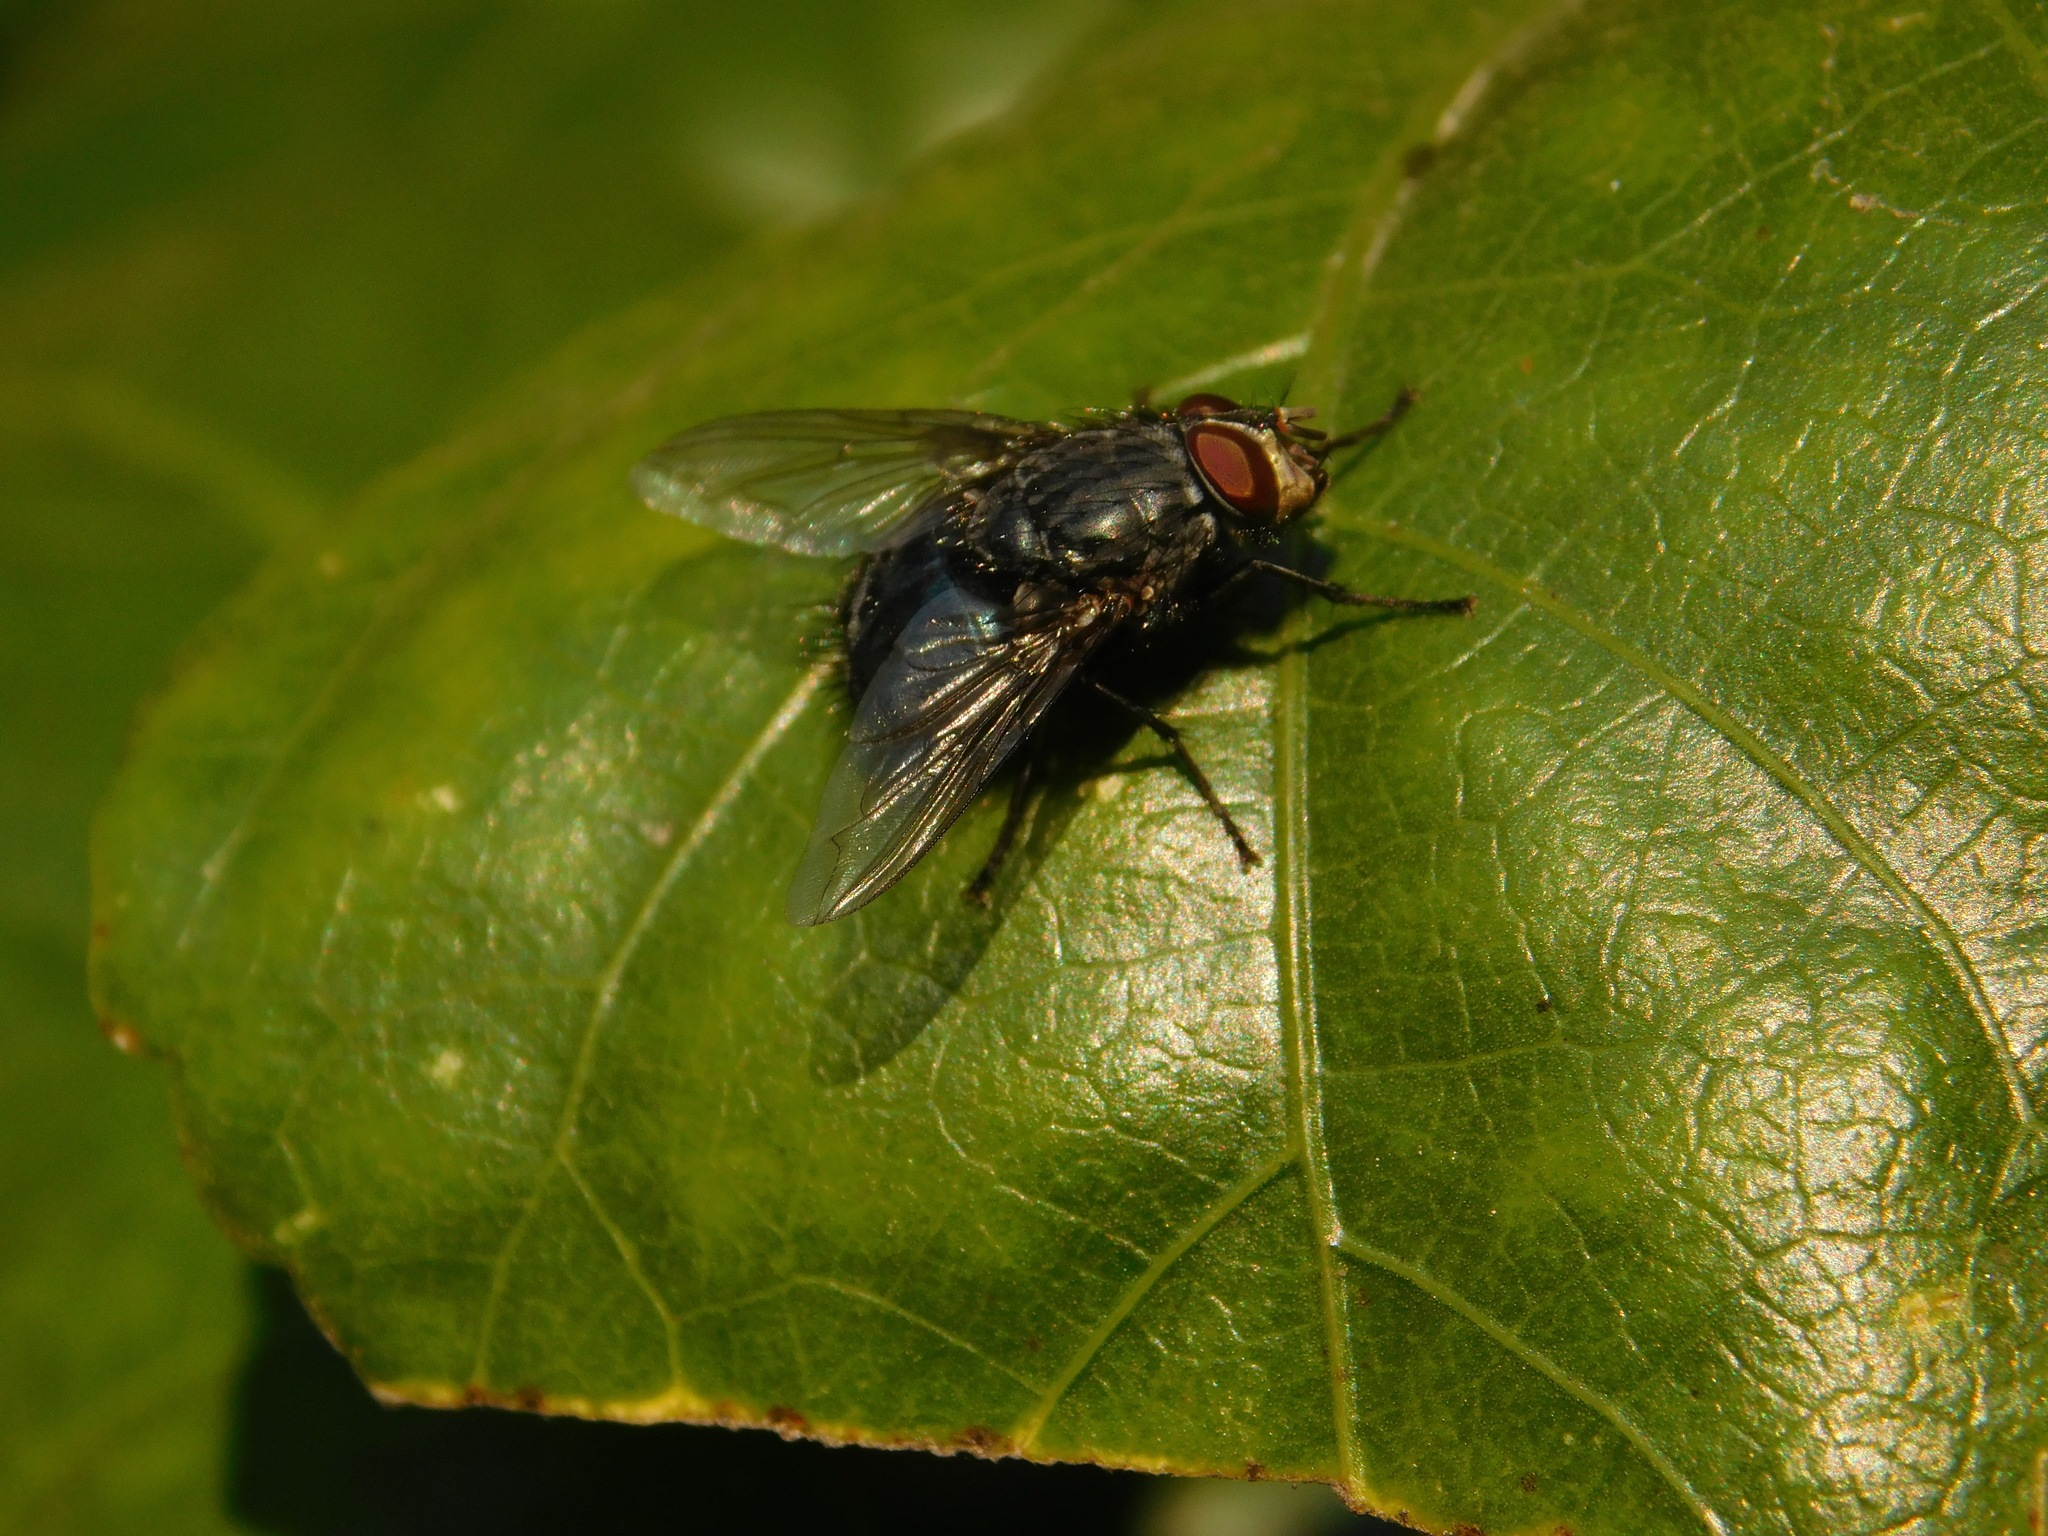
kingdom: Animalia
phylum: Arthropoda
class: Insecta
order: Diptera
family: Calliphoridae
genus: Calliphora
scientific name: Calliphora vicina
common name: Common blow flie
